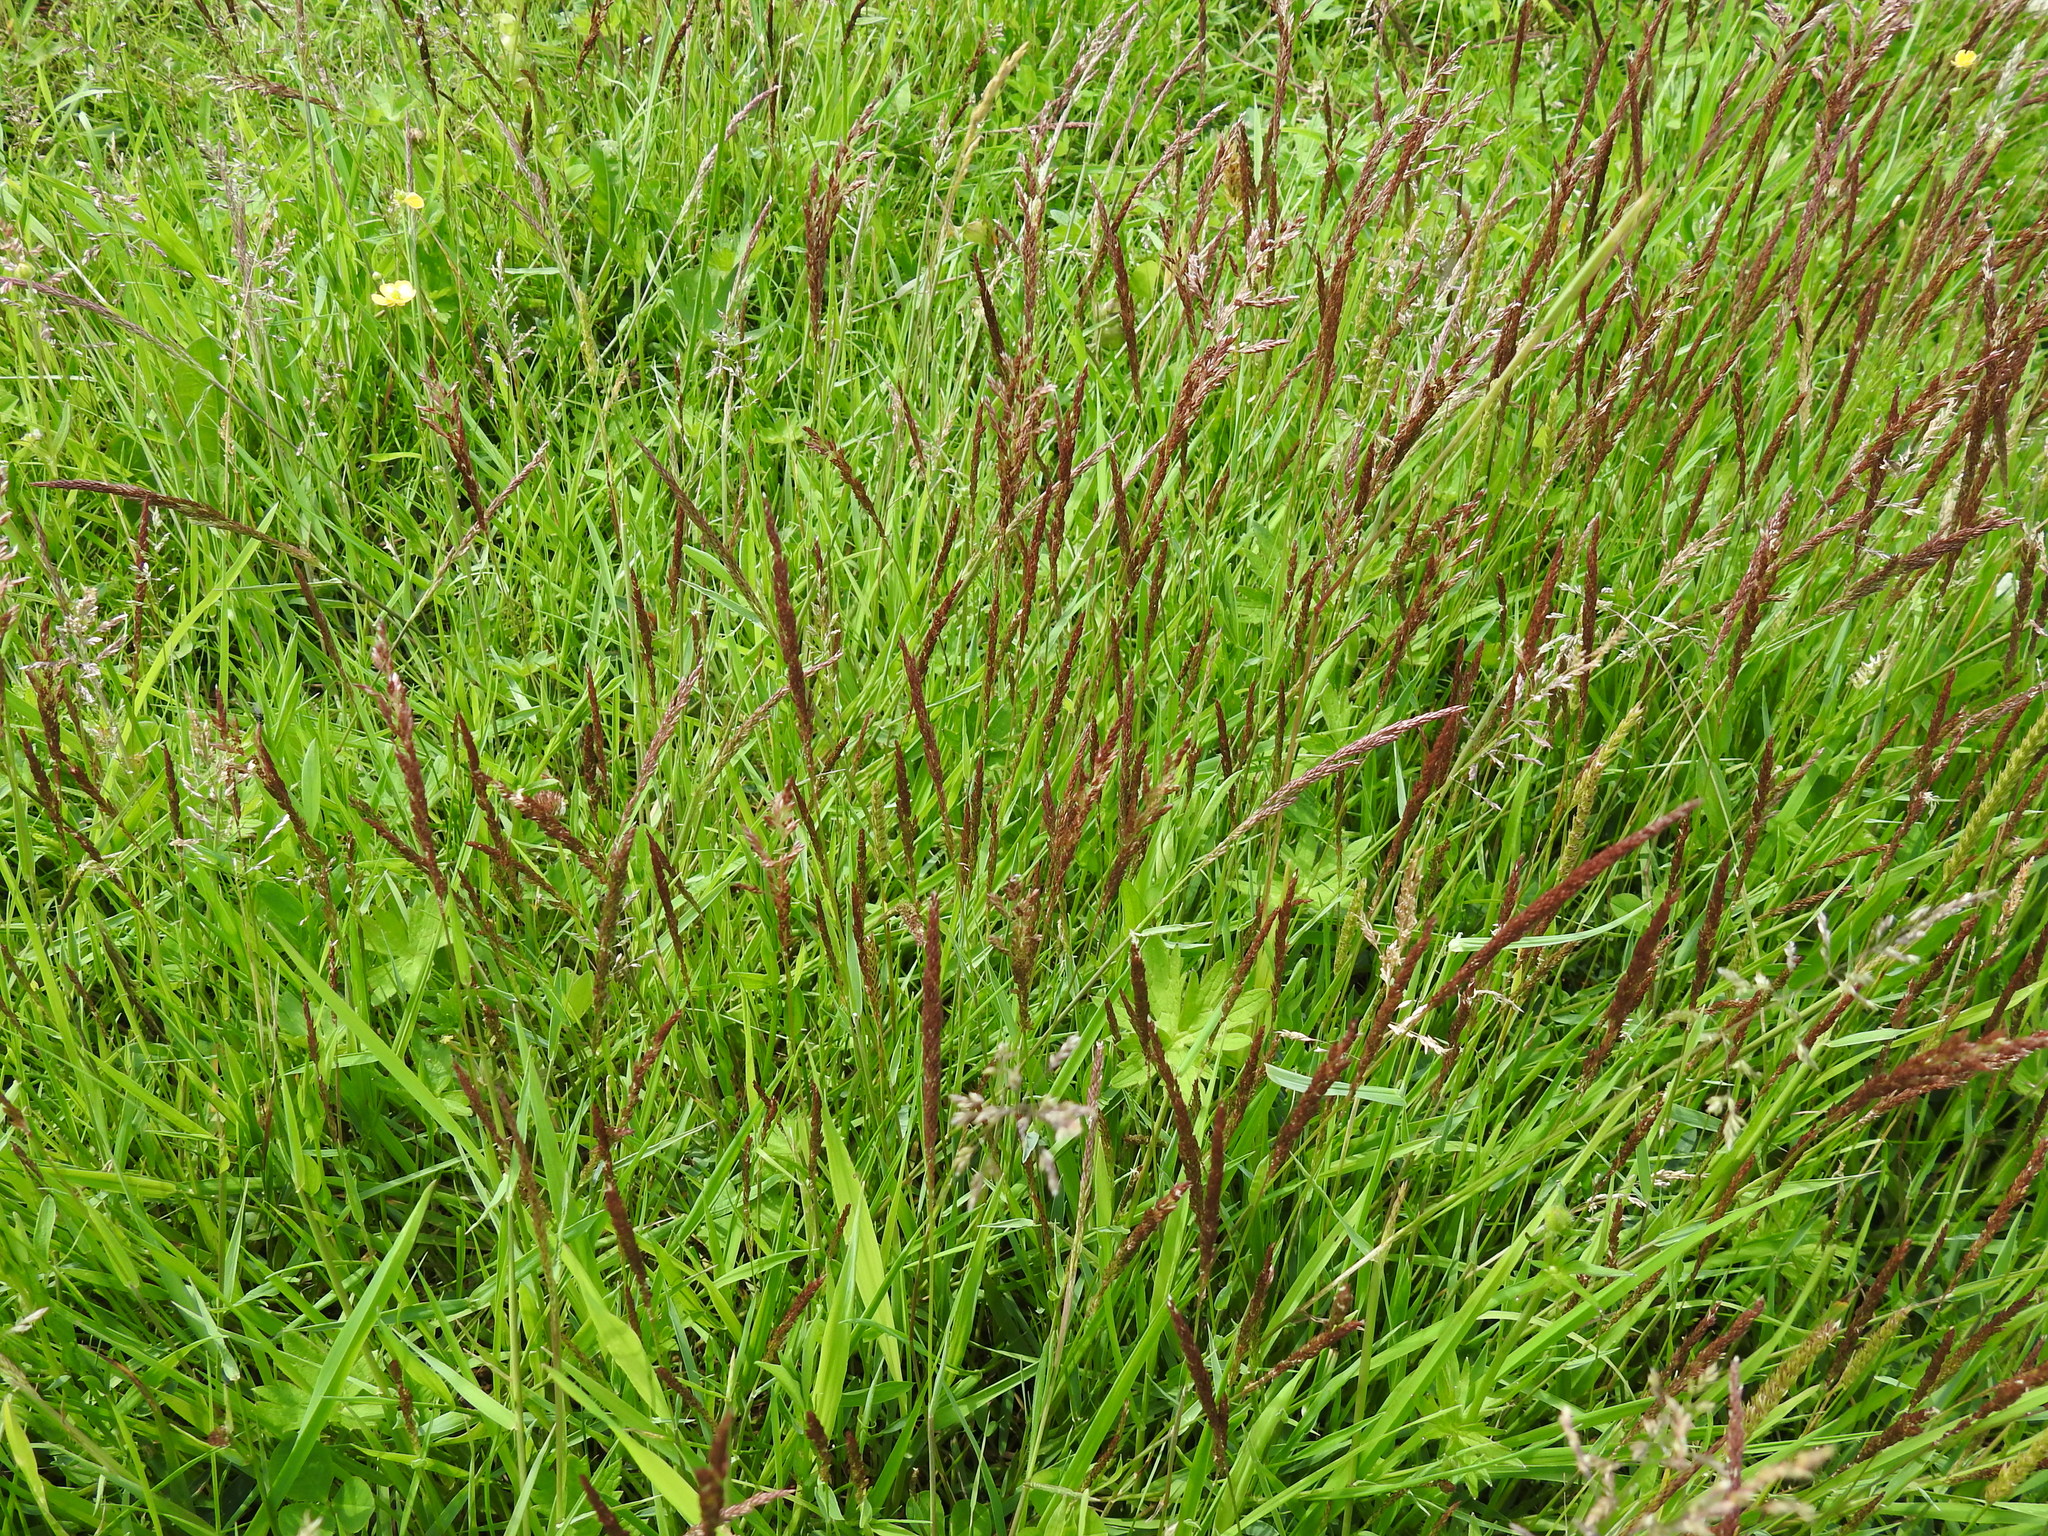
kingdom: Plantae
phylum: Tracheophyta
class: Liliopsida
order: Poales
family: Poaceae
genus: Agrostis
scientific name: Agrostis capillaris
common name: Colonial bentgrass
